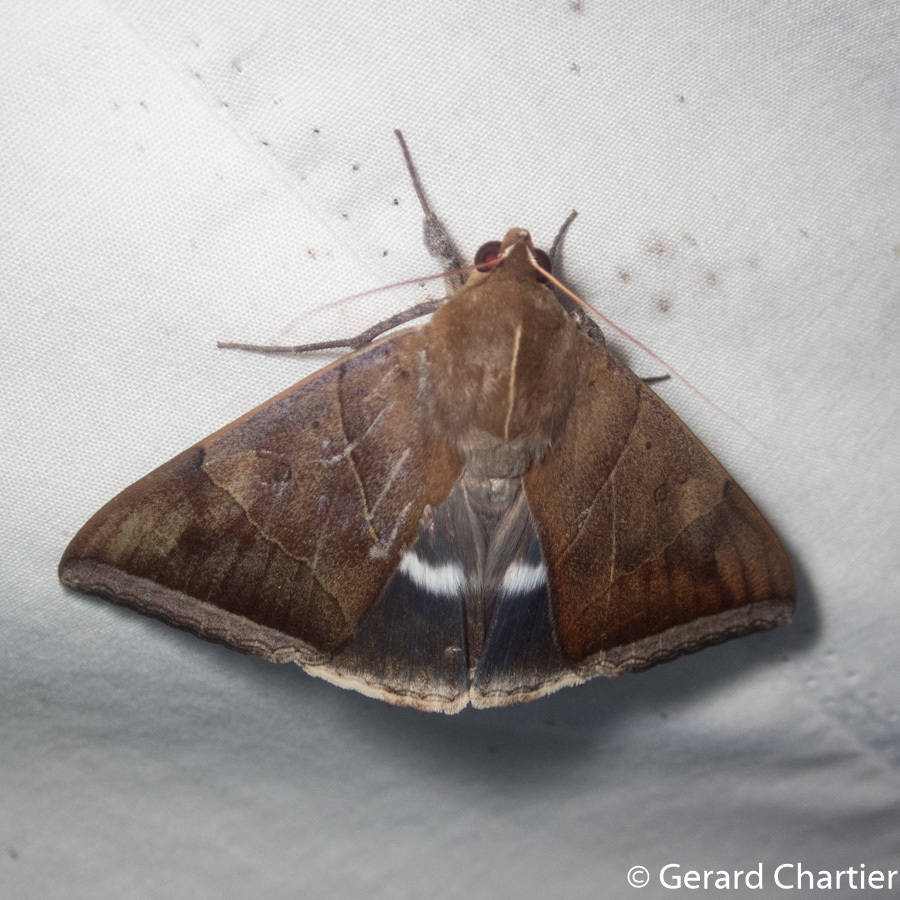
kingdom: Animalia
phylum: Arthropoda
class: Insecta
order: Lepidoptera
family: Erebidae
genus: Artena
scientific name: Artena dotata
